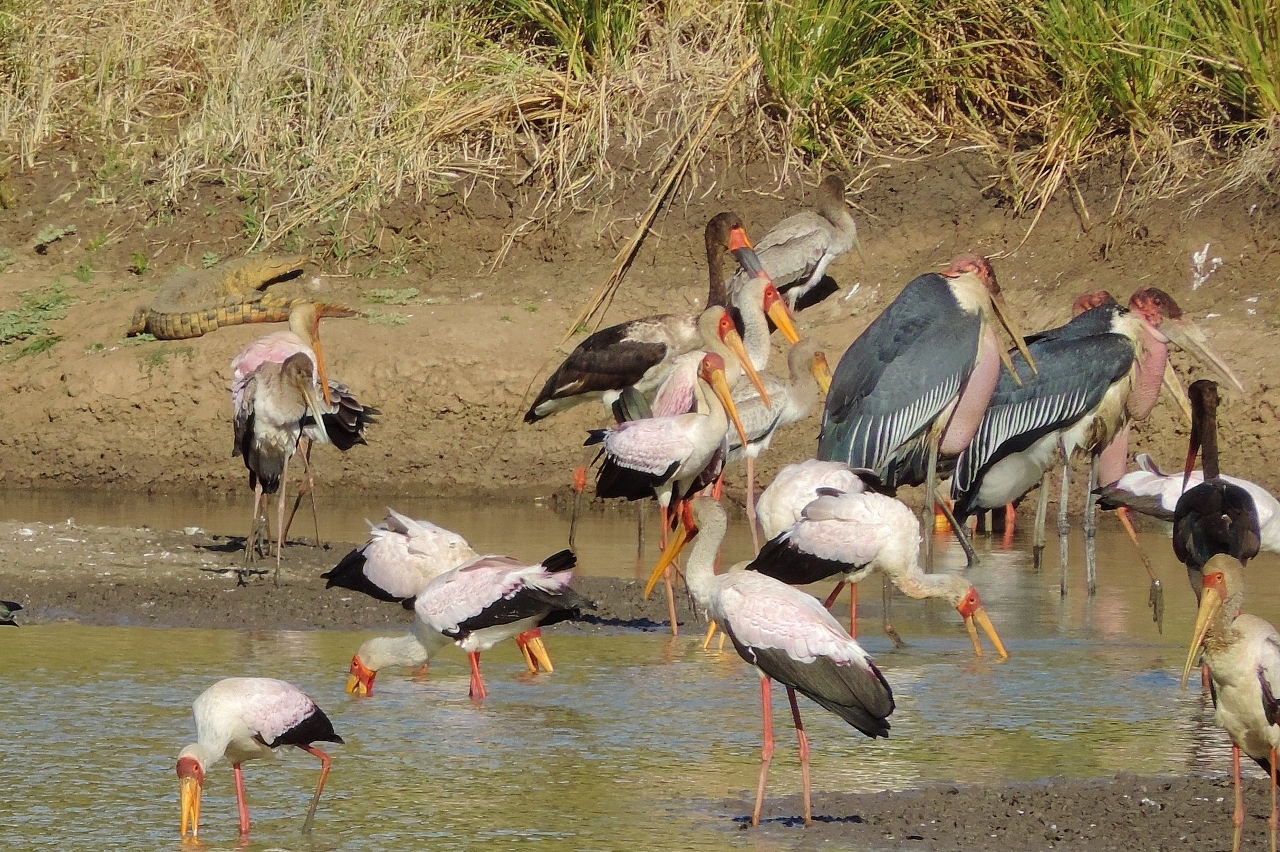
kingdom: Animalia
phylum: Chordata
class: Aves
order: Ciconiiformes
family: Ciconiidae
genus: Ephippiorhynchus
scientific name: Ephippiorhynchus senegalensis
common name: Saddle-billed stork
